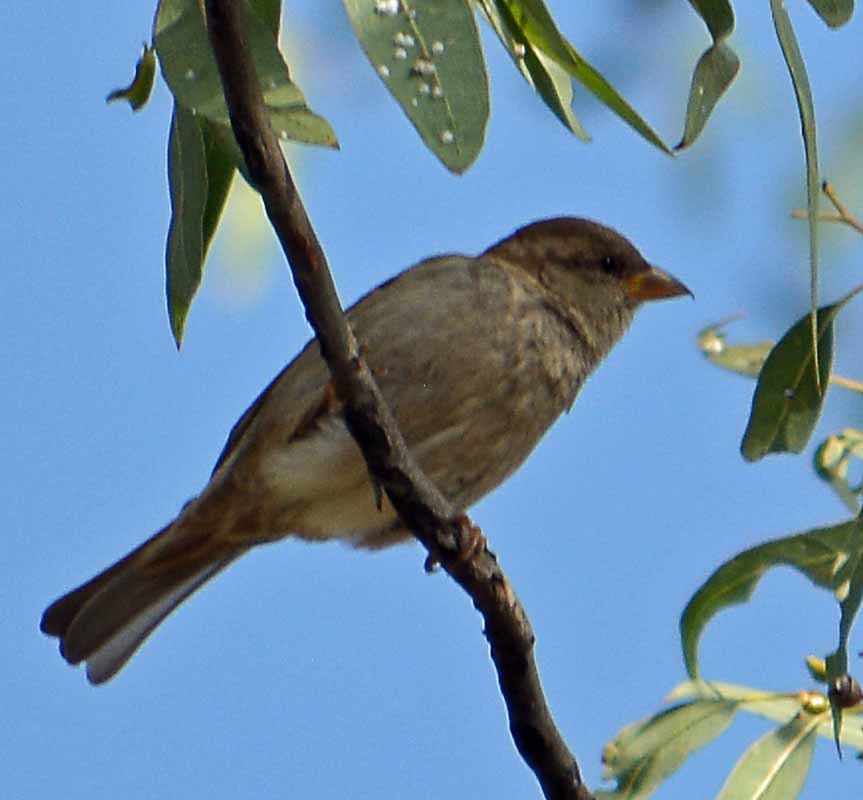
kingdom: Animalia
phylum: Chordata
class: Aves
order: Passeriformes
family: Passeridae
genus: Passer
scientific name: Passer domesticus
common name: House sparrow
